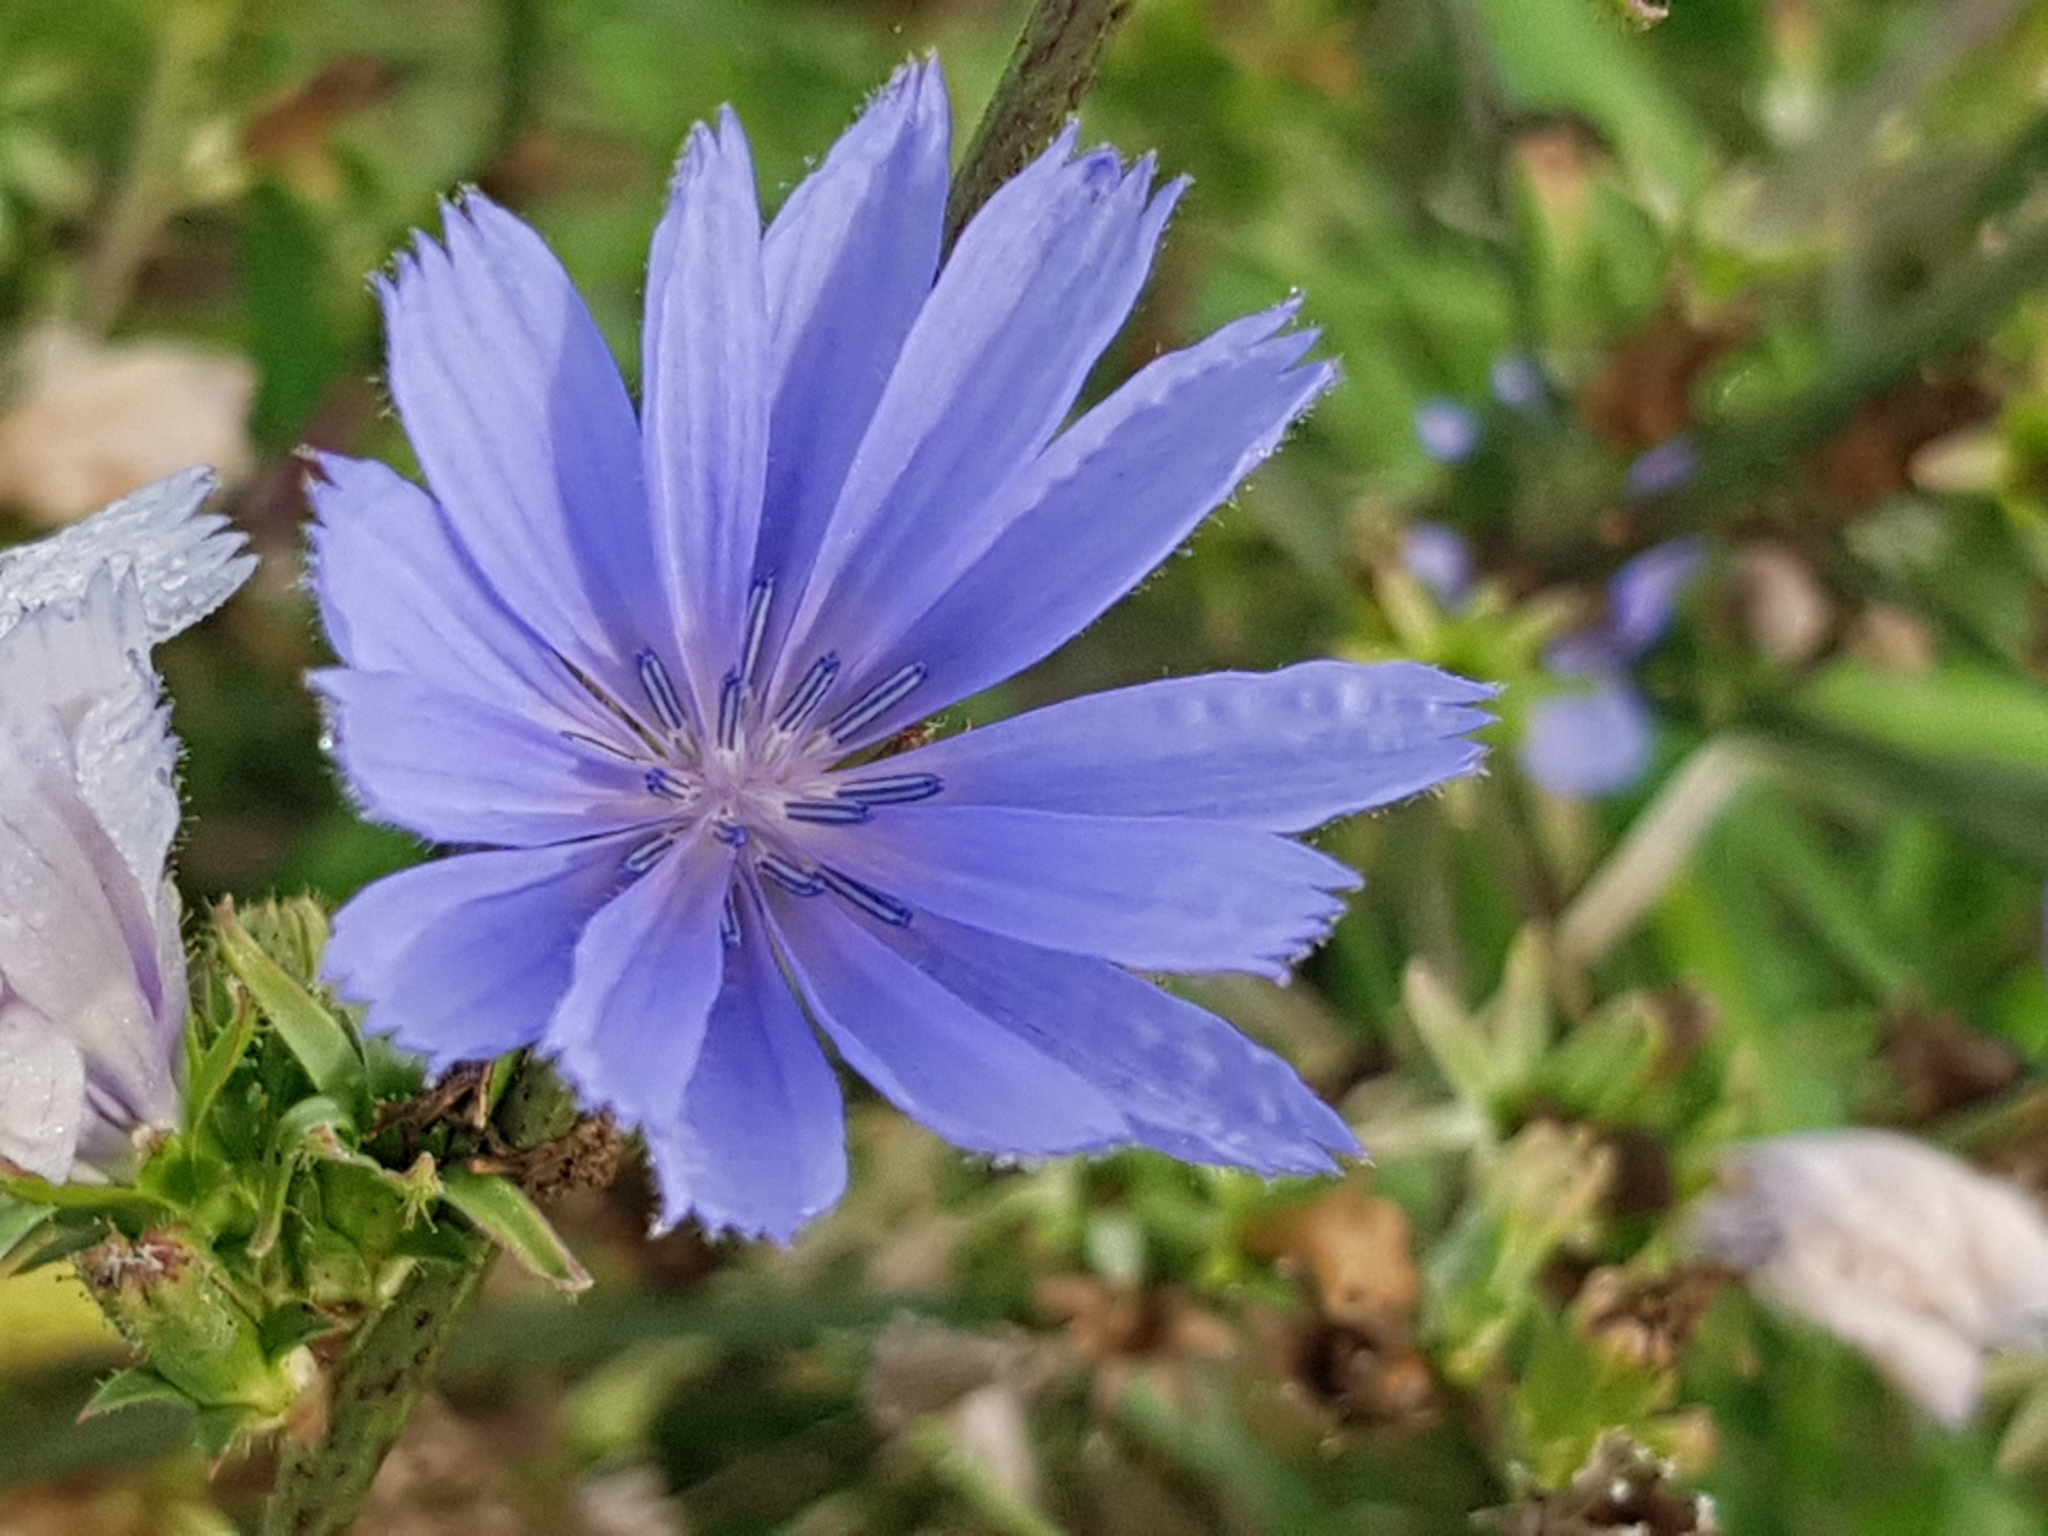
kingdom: Plantae
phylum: Tracheophyta
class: Magnoliopsida
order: Asterales
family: Asteraceae
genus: Cichorium
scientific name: Cichorium intybus
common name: Chicory
